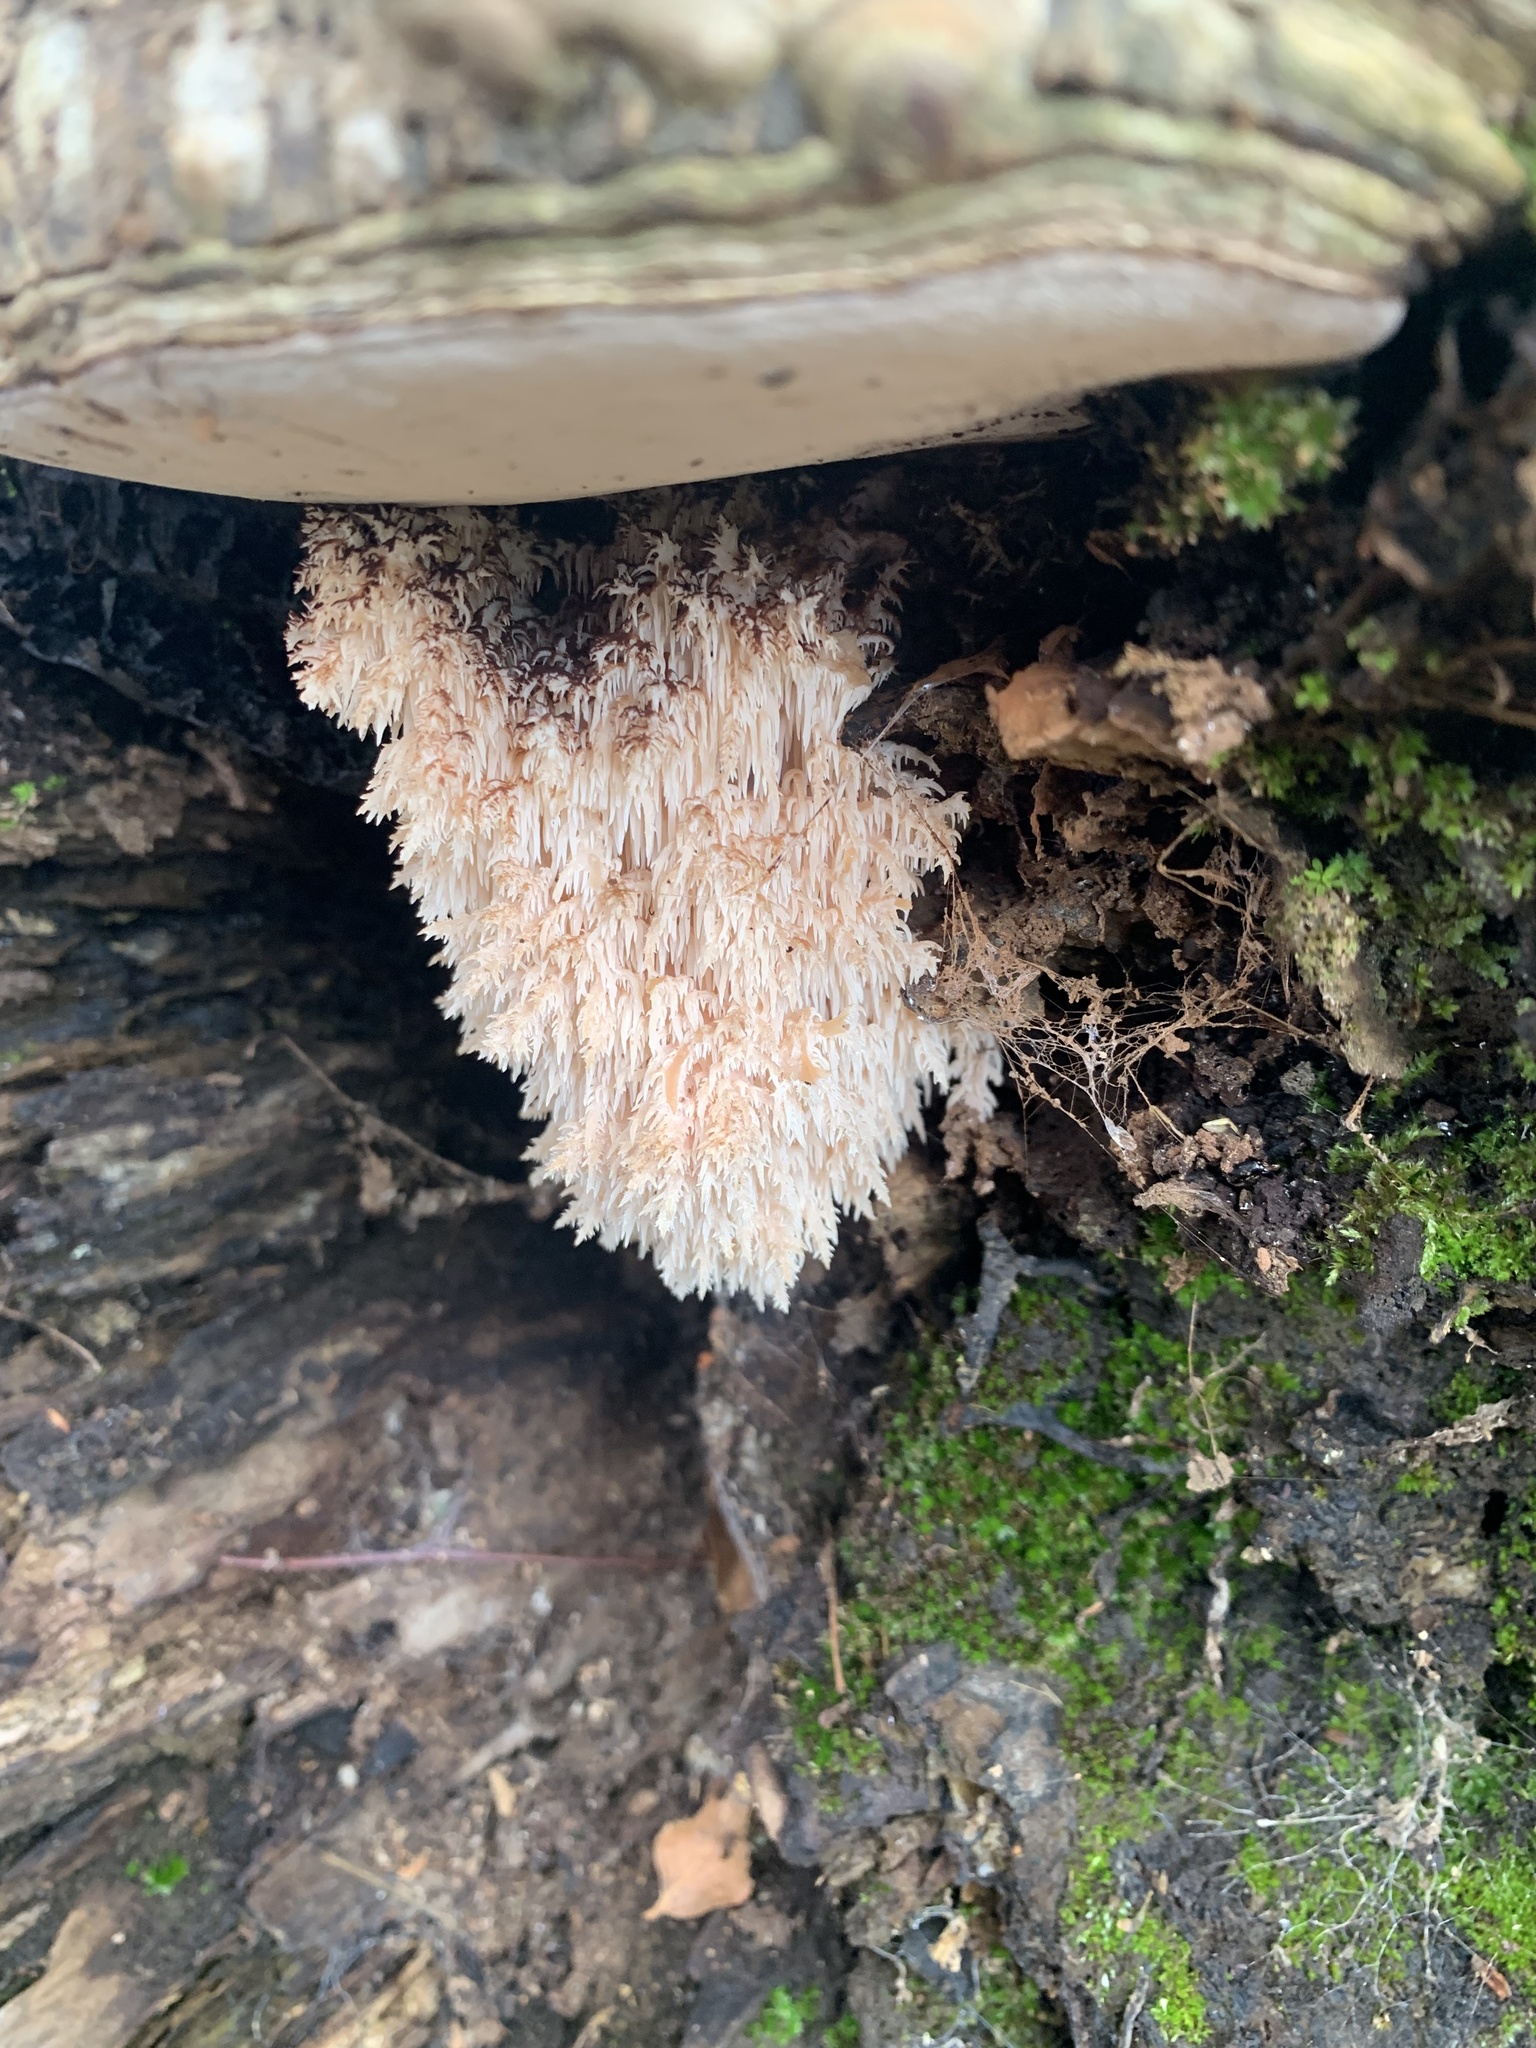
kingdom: Fungi
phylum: Basidiomycota
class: Agaricomycetes
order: Russulales
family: Hericiaceae
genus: Hericium
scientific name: Hericium coralloides
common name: Coral tooth
